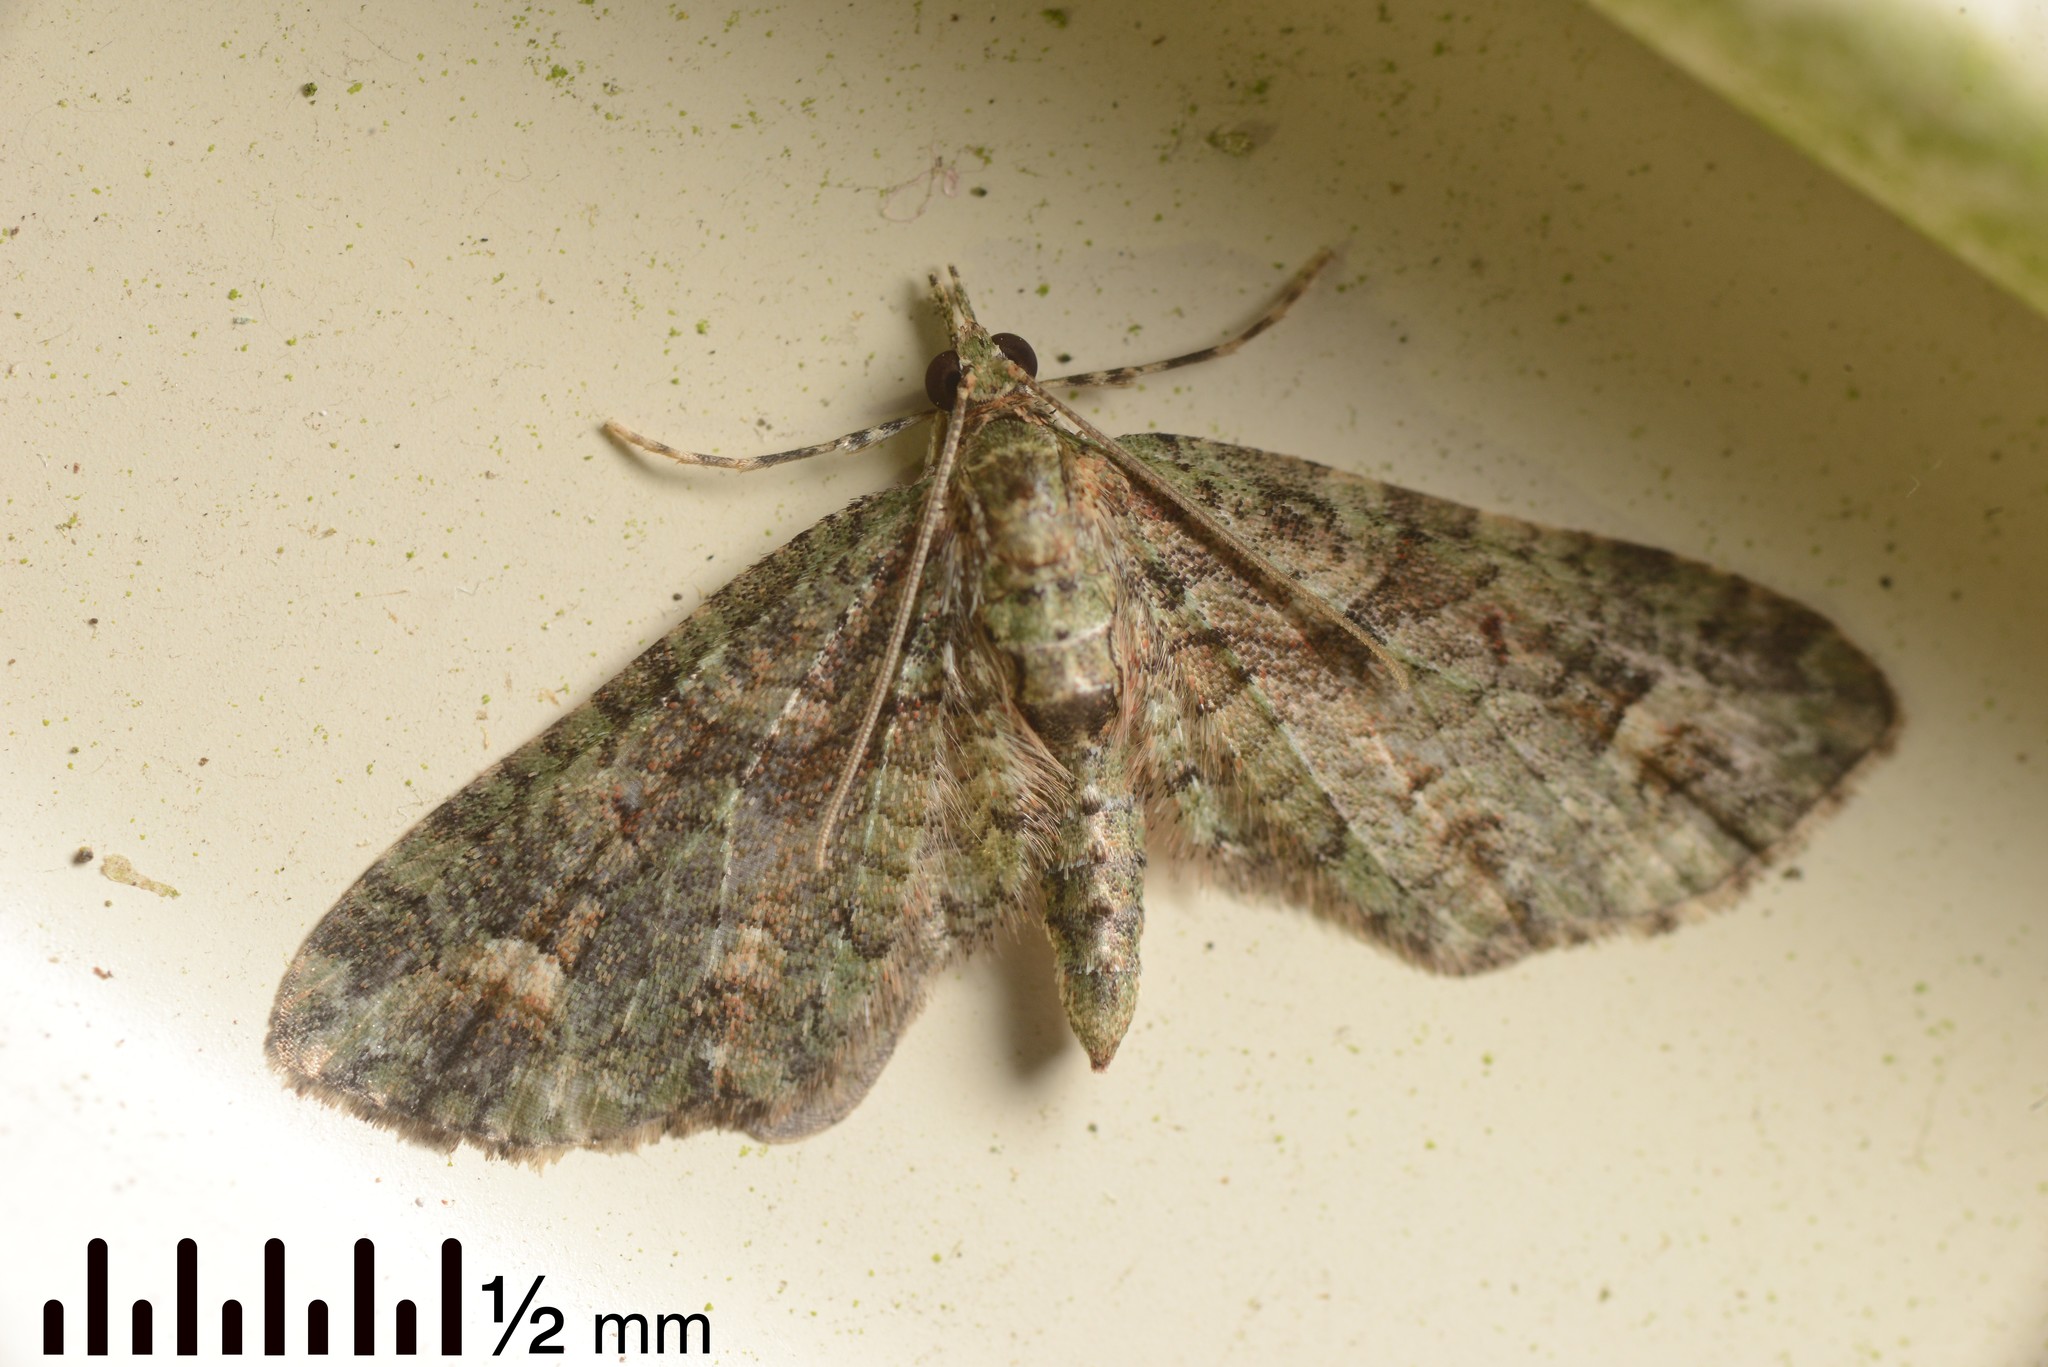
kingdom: Animalia
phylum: Arthropoda
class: Insecta
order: Lepidoptera
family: Geometridae
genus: Idaea
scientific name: Idaea mutanda
